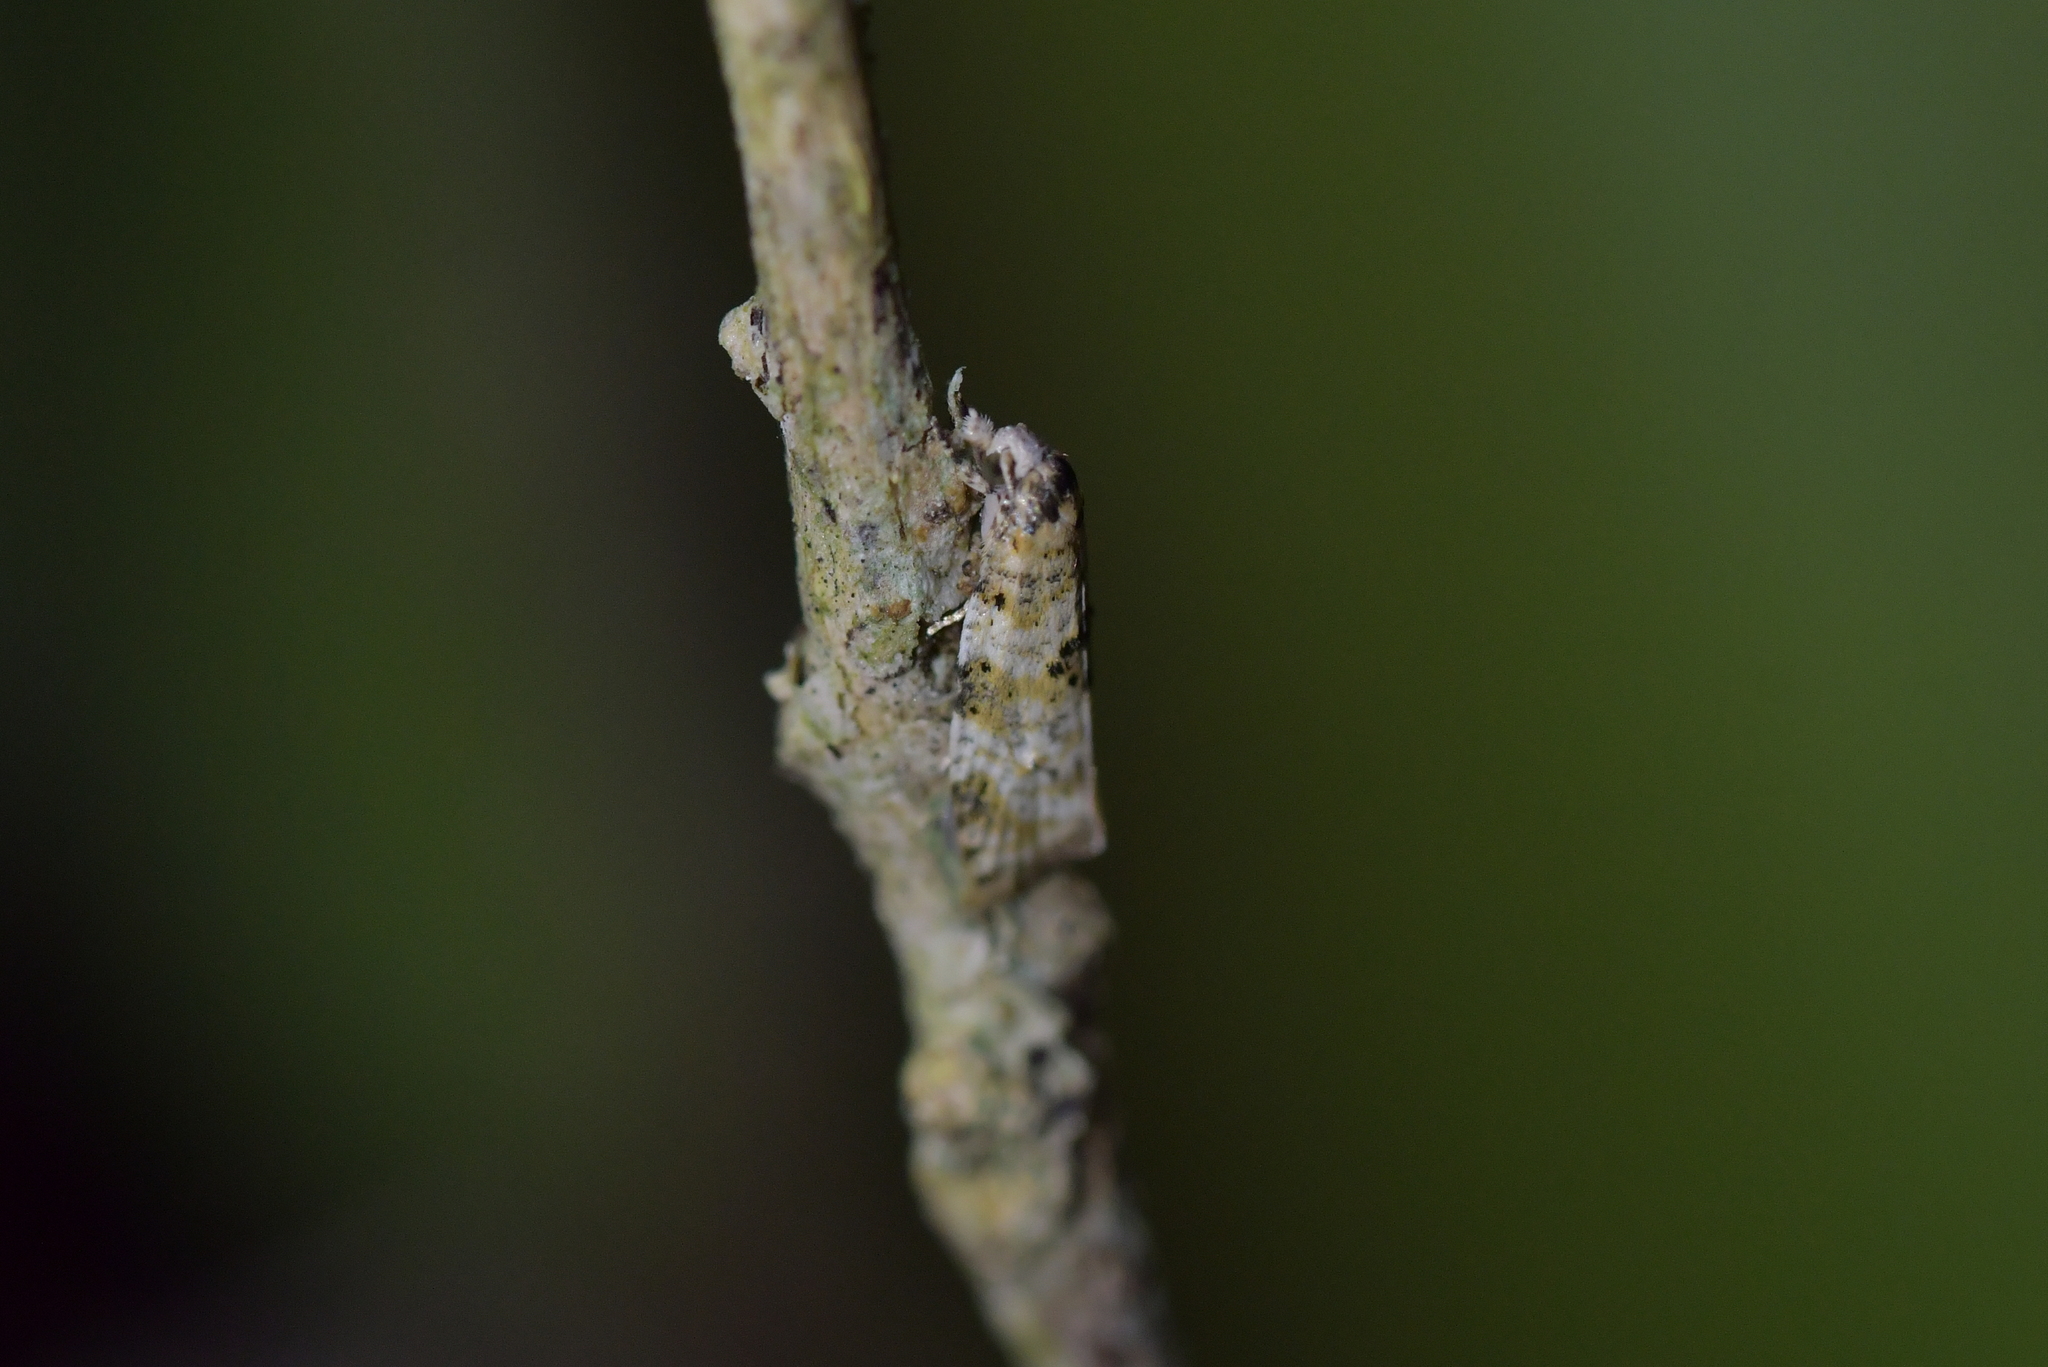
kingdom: Animalia
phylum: Arthropoda
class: Insecta
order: Lepidoptera
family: Tortricidae
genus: Dipterina
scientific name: Dipterina imbriferana
